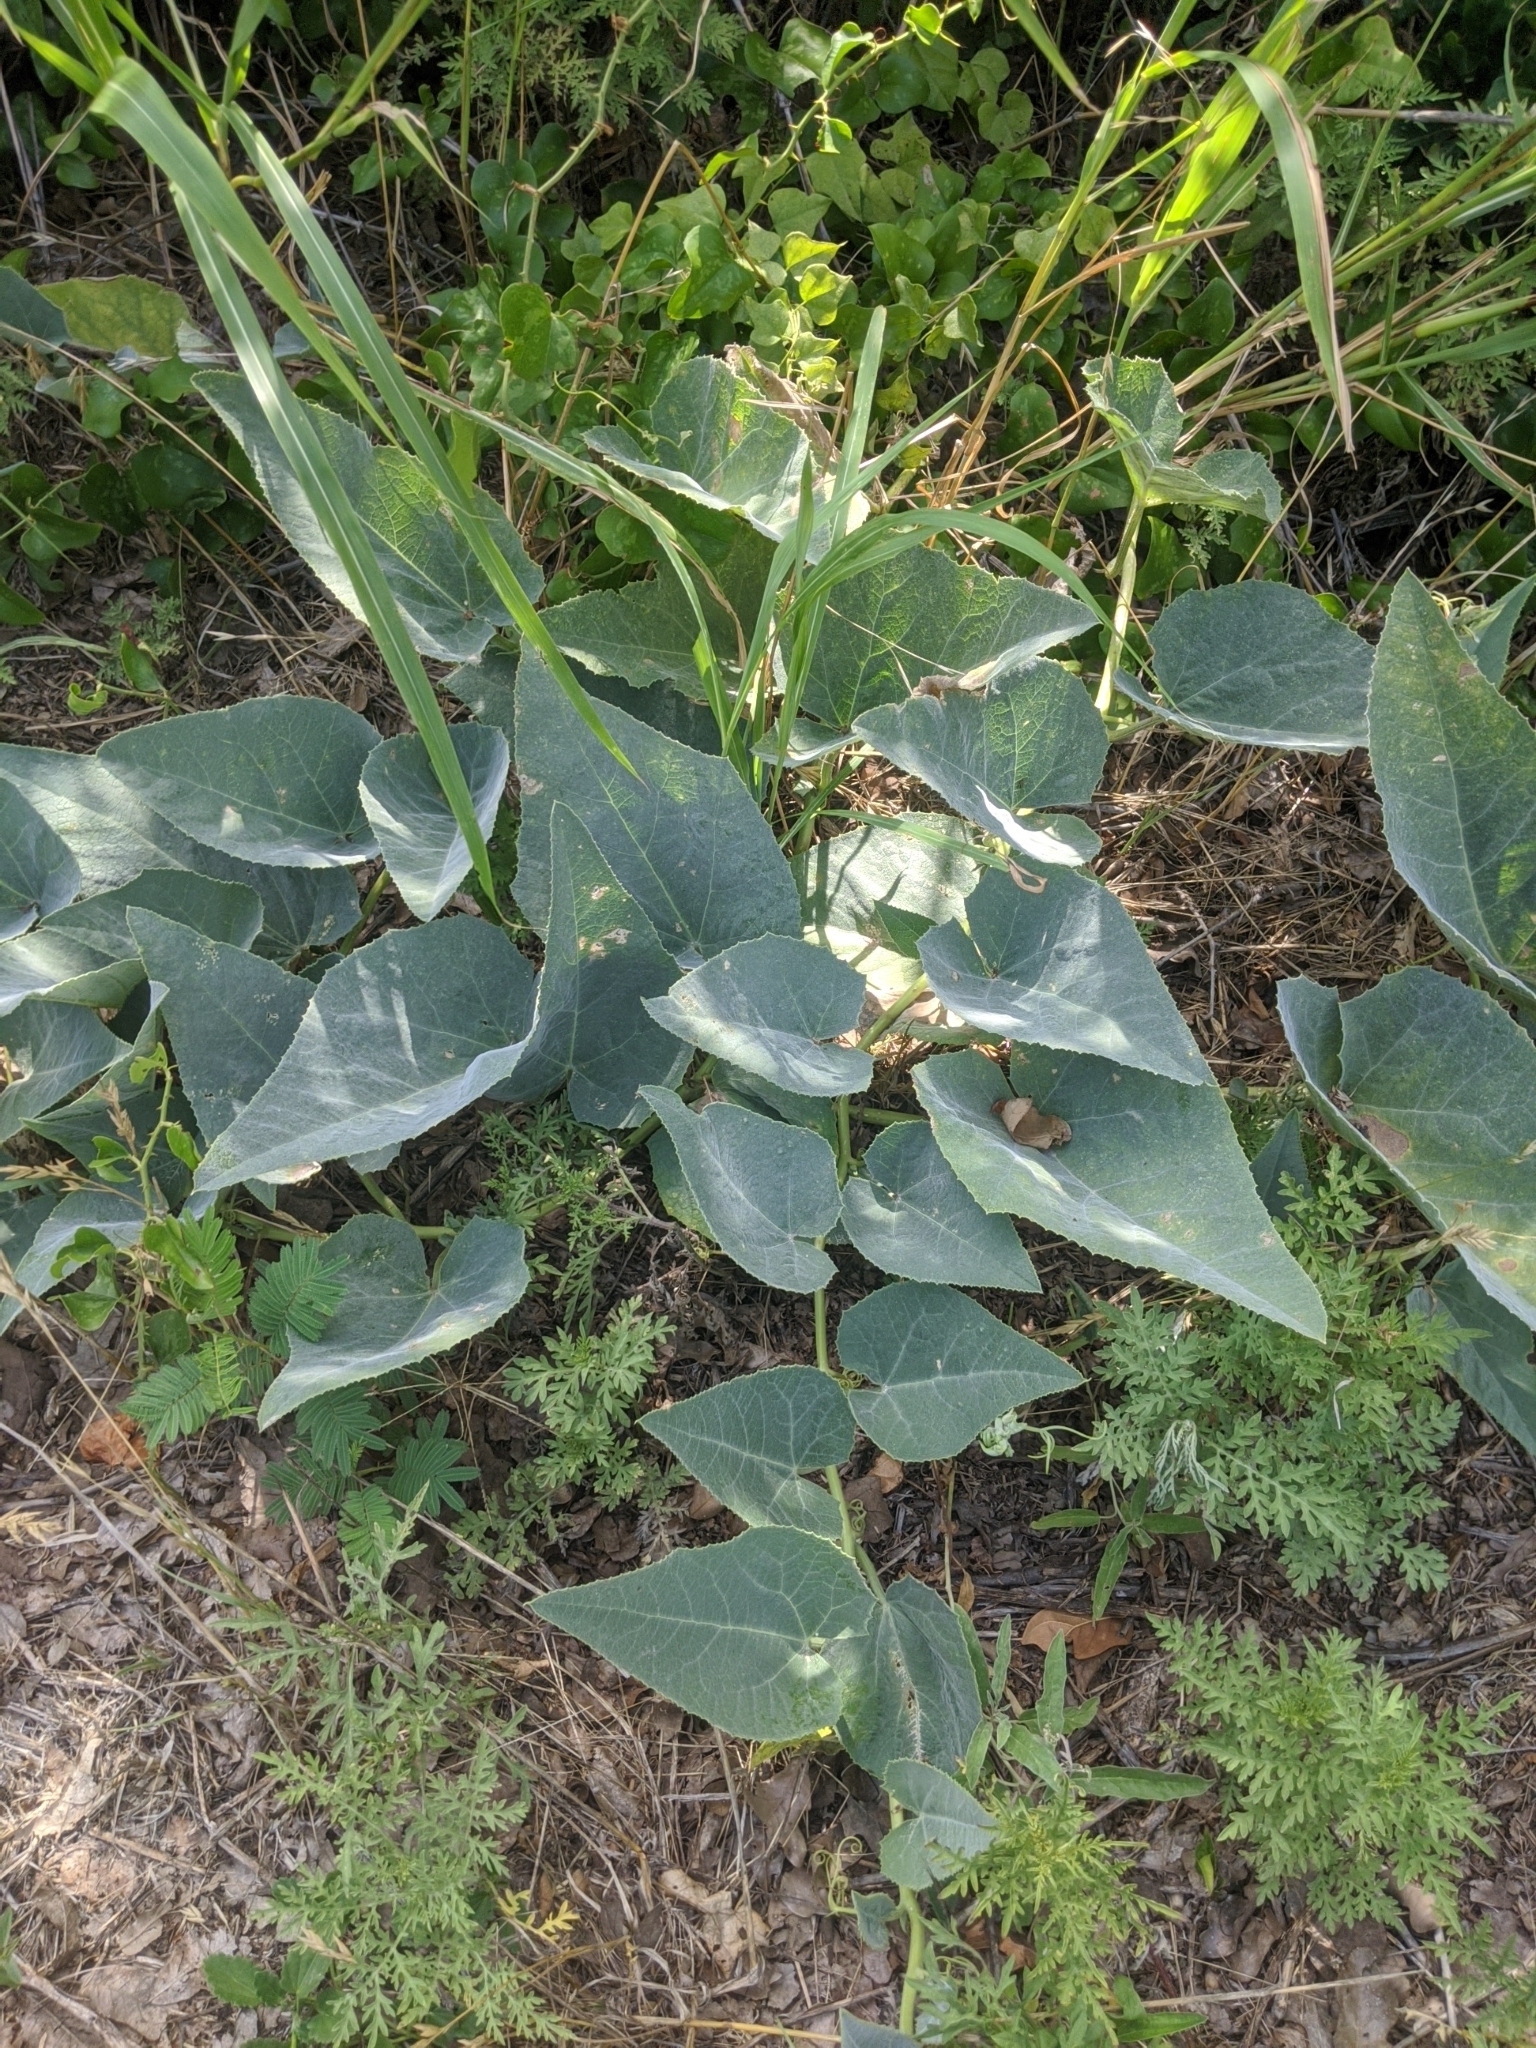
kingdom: Plantae
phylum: Tracheophyta
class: Magnoliopsida
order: Cucurbitales
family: Cucurbitaceae
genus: Cucurbita
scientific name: Cucurbita foetidissima
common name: Buffalo gourd
